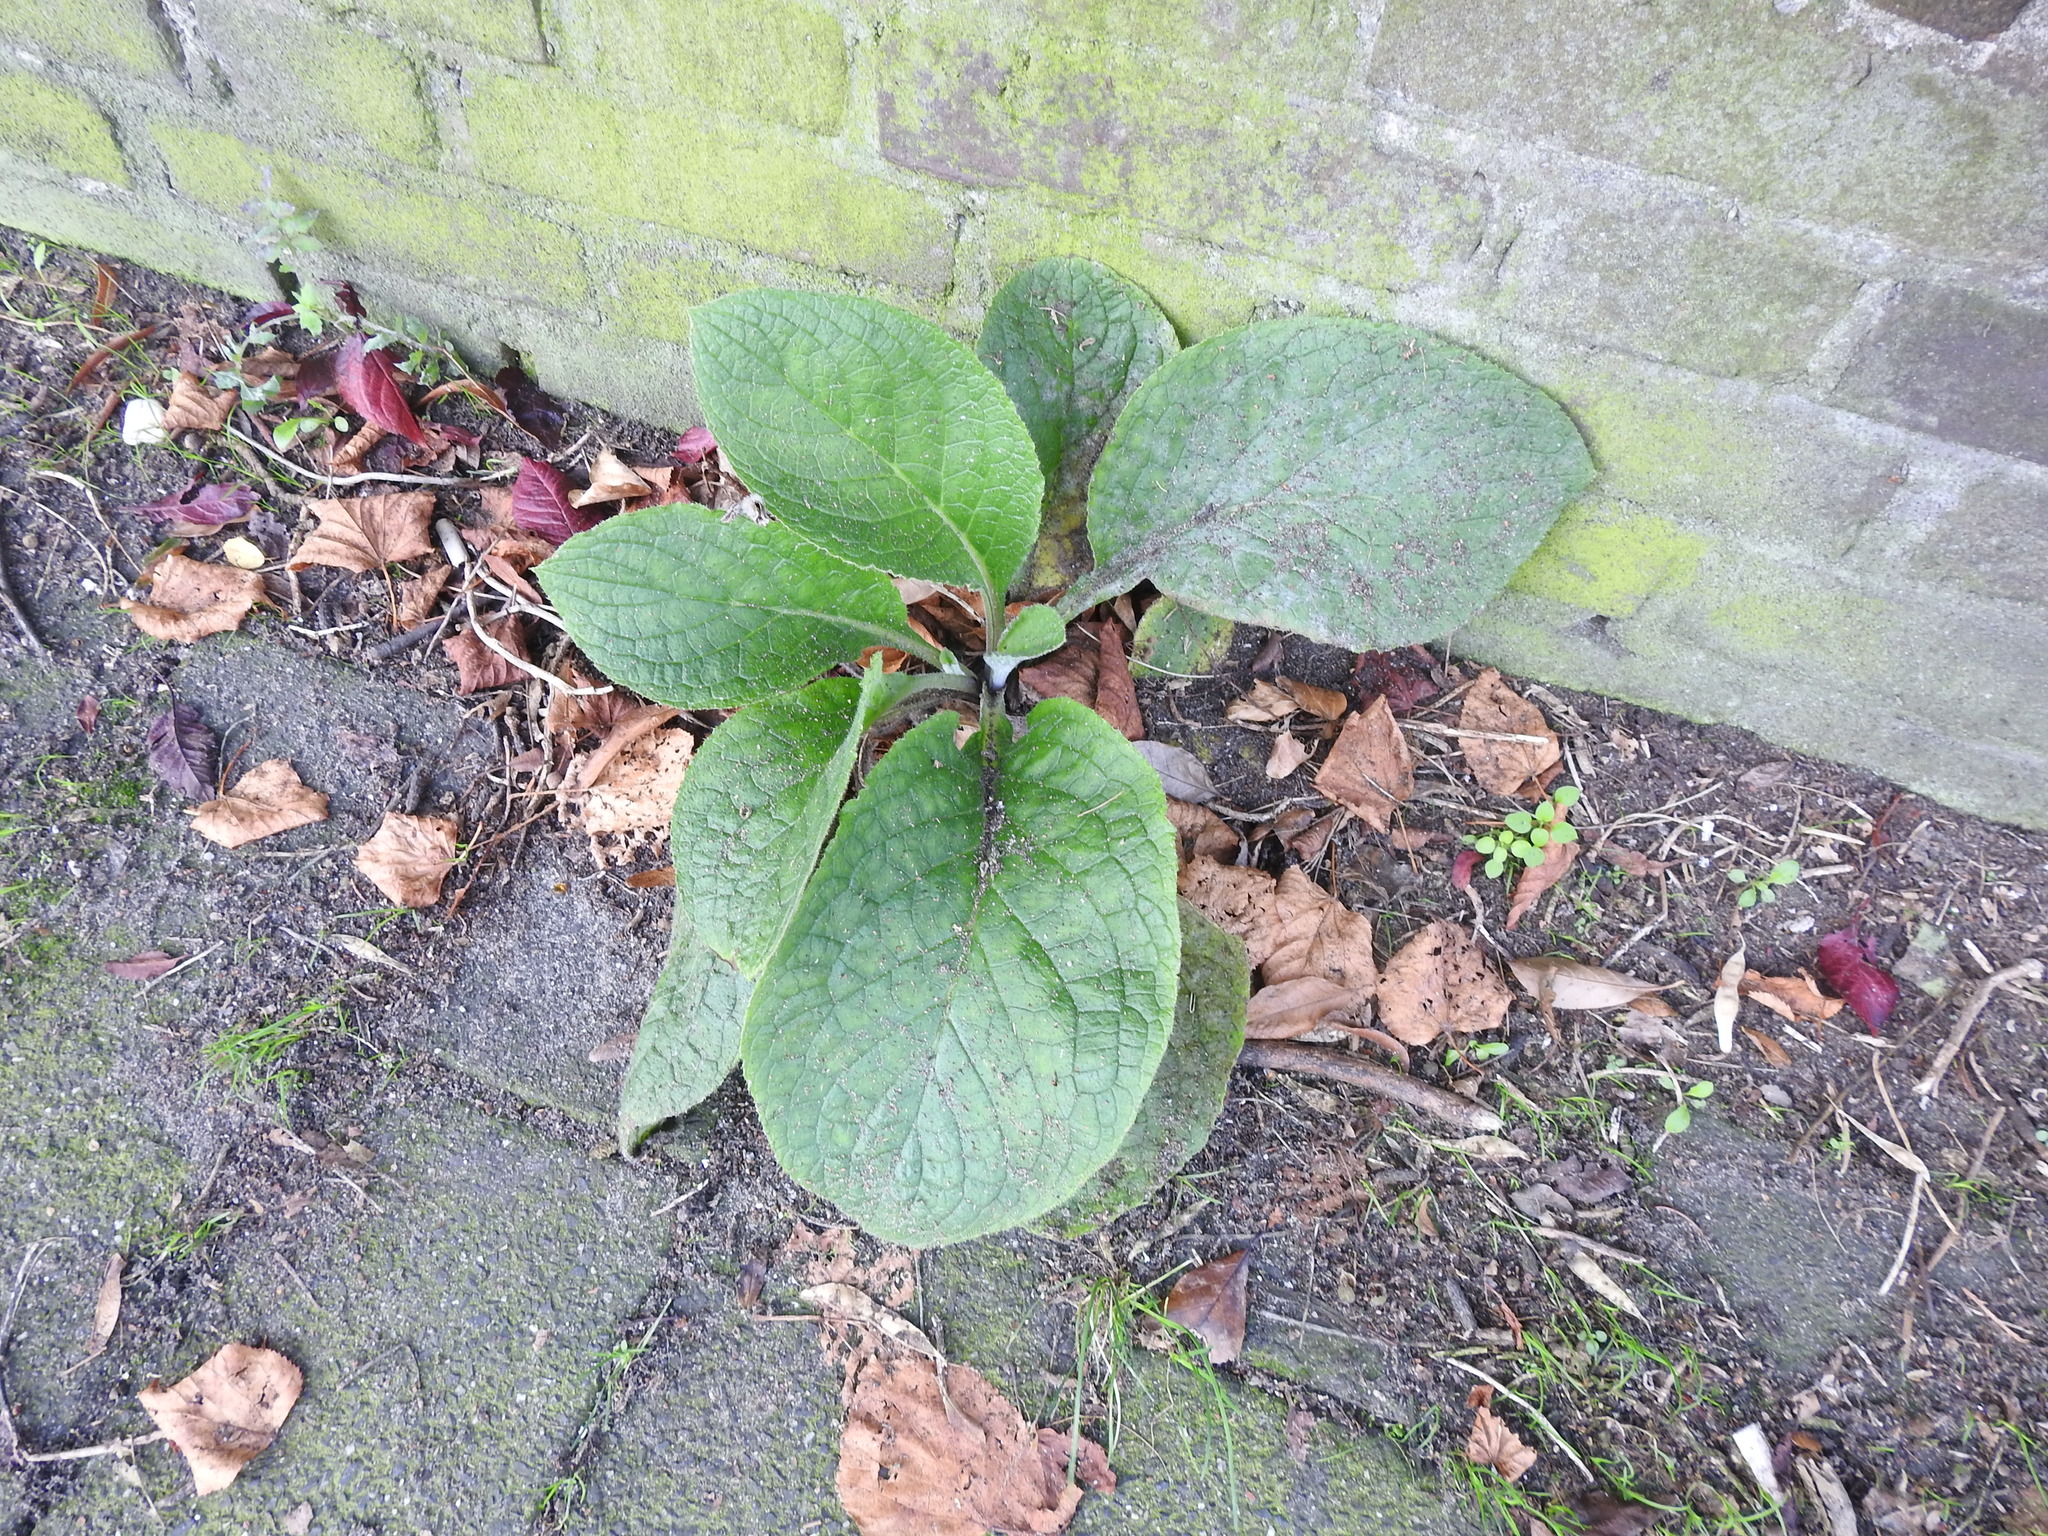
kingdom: Plantae
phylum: Tracheophyta
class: Magnoliopsida
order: Lamiales
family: Plantaginaceae
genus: Digitalis
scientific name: Digitalis purpurea
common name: Foxglove
